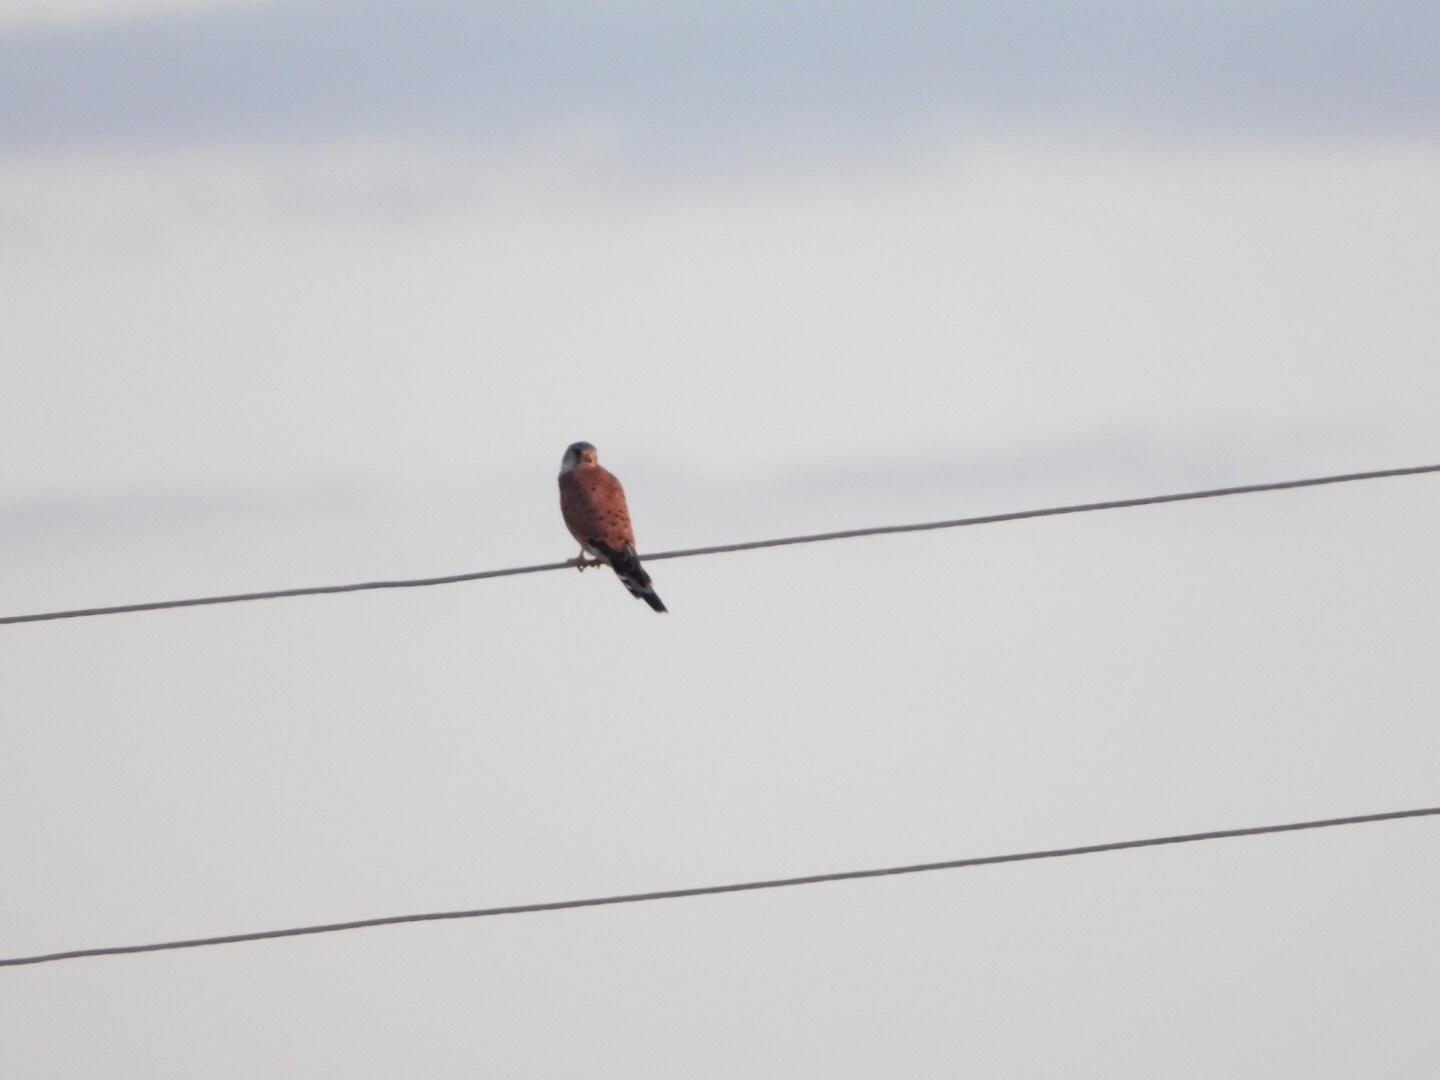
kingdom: Animalia
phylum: Chordata
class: Aves
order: Falconiformes
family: Falconidae
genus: Falco
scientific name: Falco tinnunculus
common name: Common kestrel
